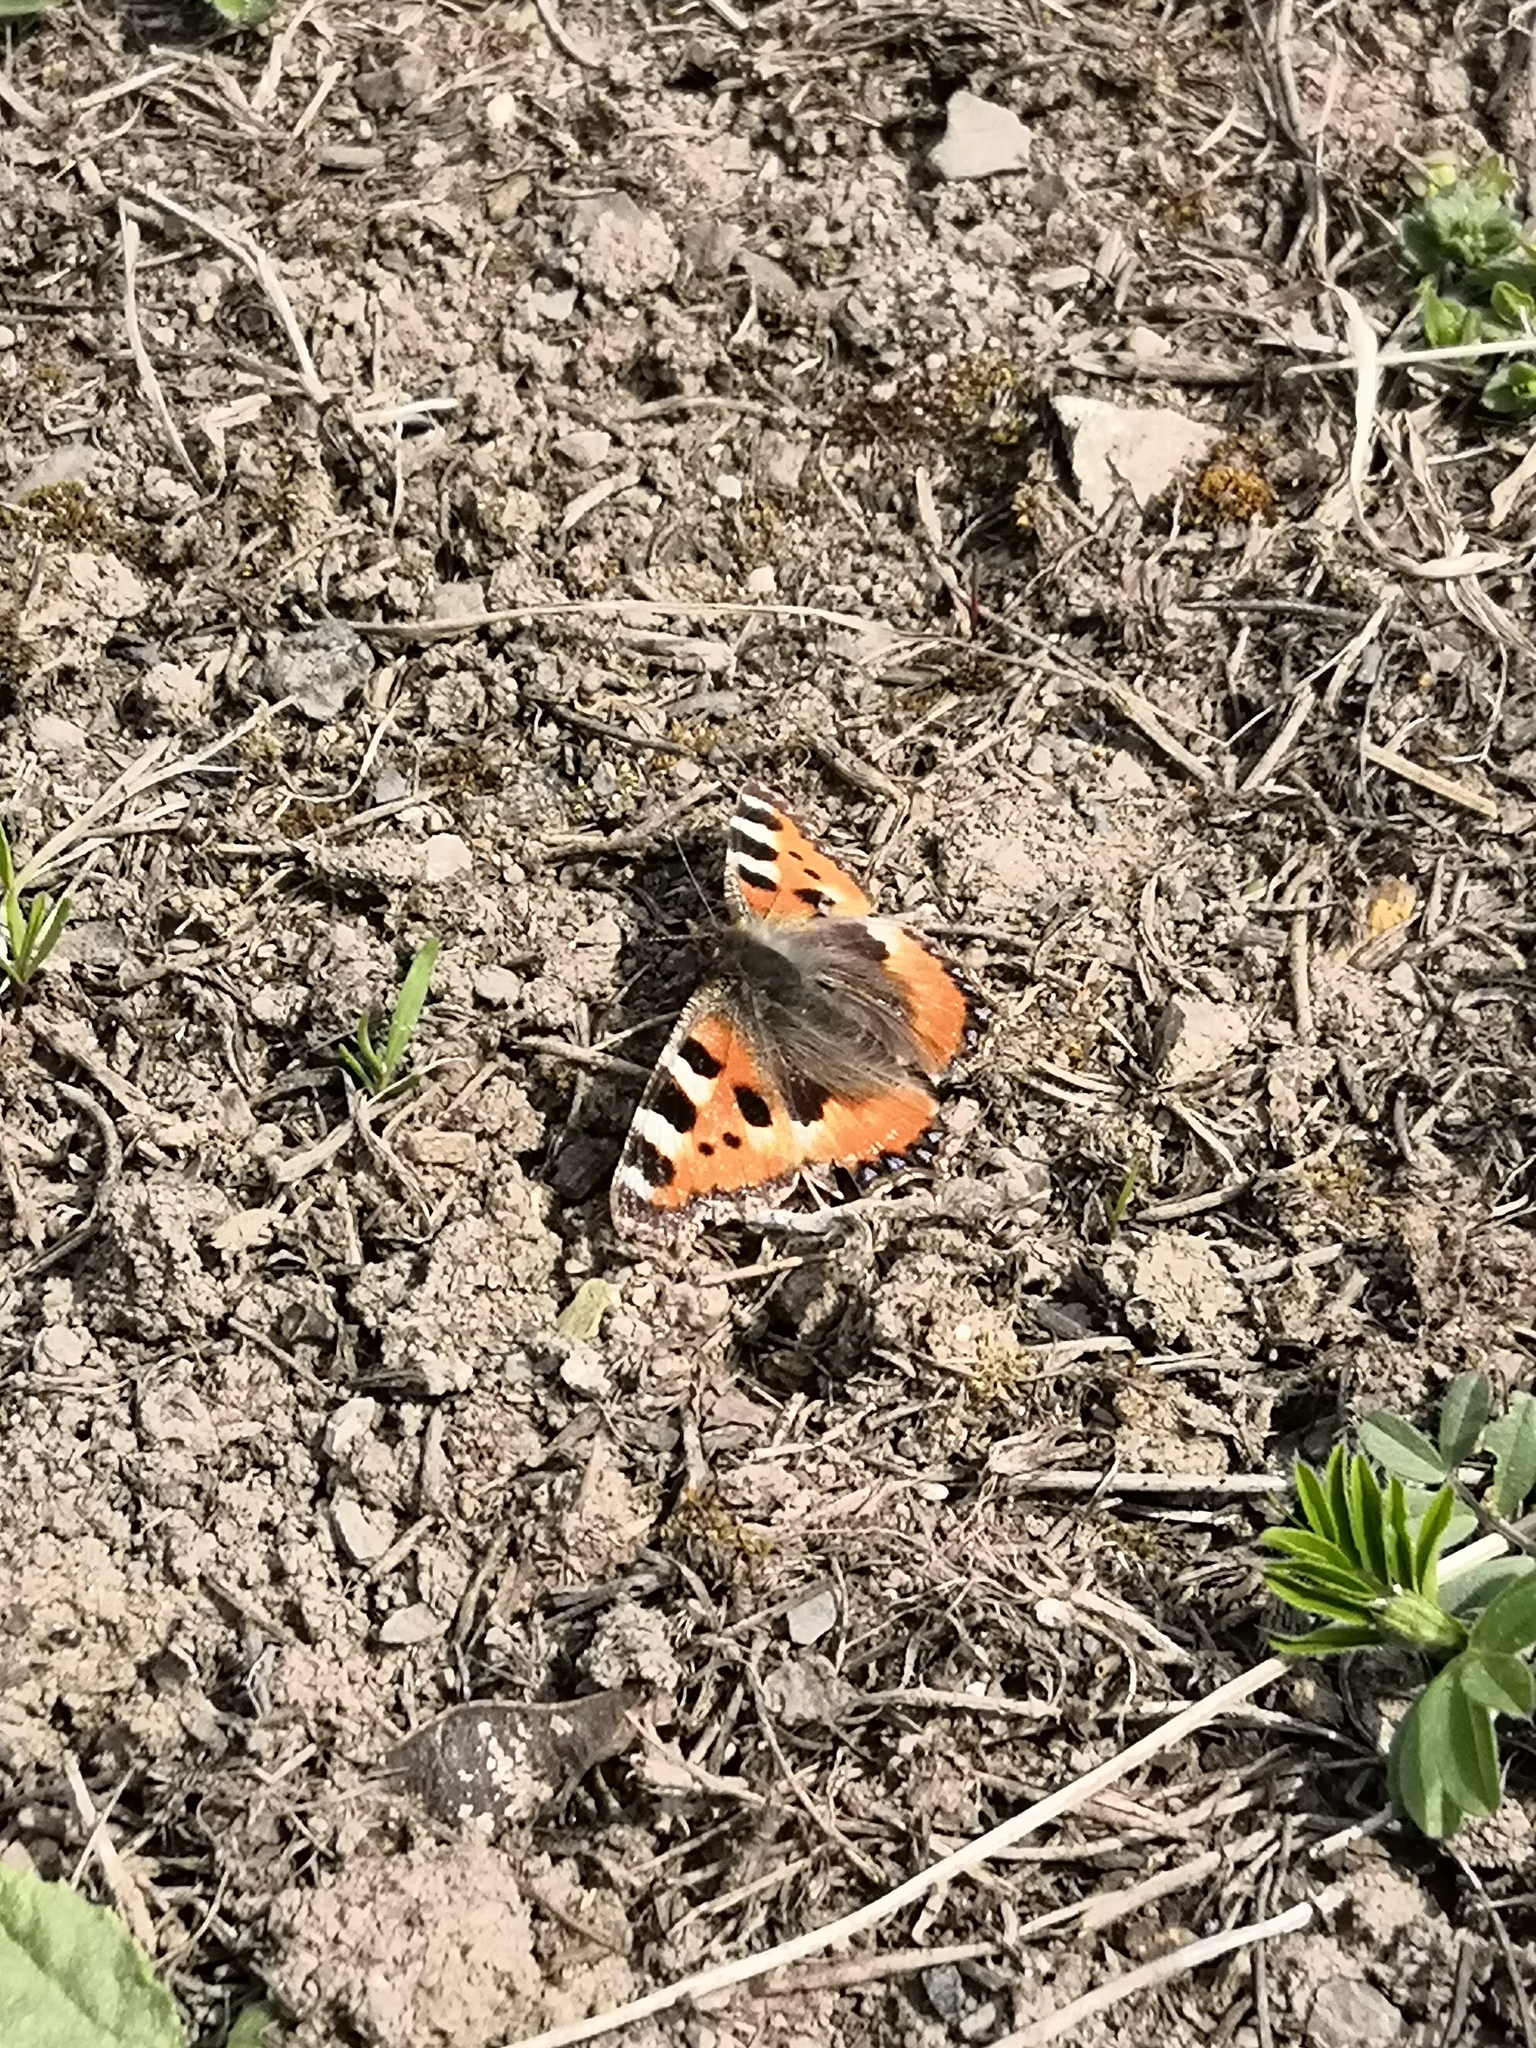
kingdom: Animalia
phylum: Arthropoda
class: Insecta
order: Lepidoptera
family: Nymphalidae
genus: Aglais
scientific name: Aglais urticae
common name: Small tortoiseshell
